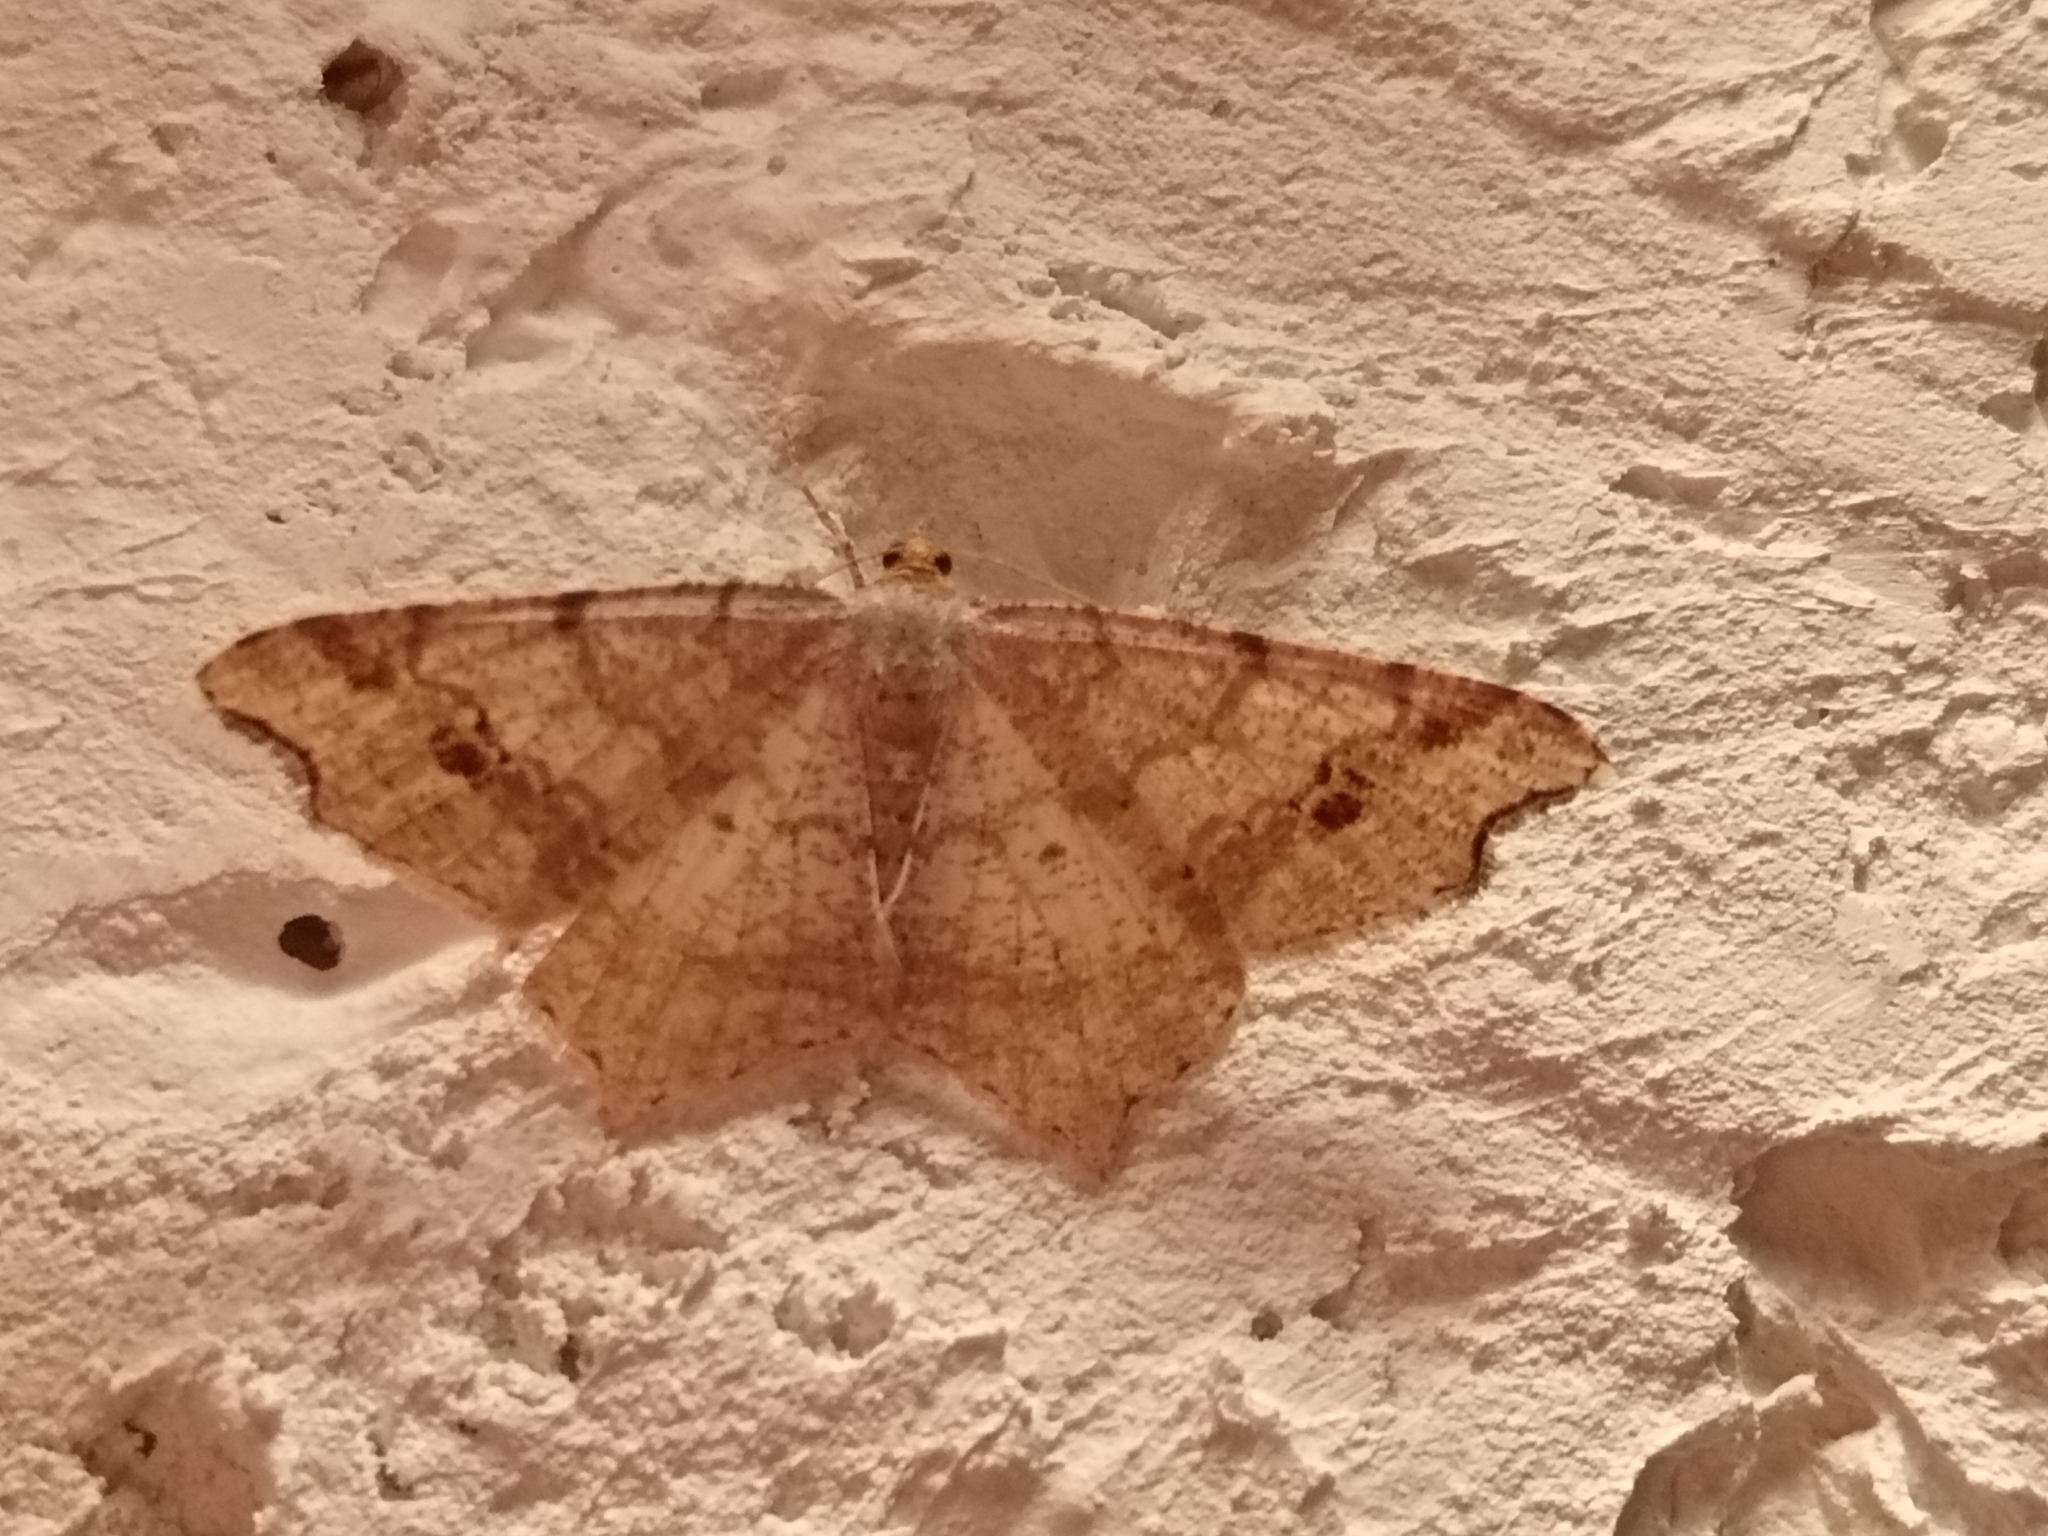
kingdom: Animalia
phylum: Arthropoda
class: Insecta
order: Lepidoptera
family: Geometridae
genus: Macaria
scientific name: Macaria alternata
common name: Sharp-angled peacock
